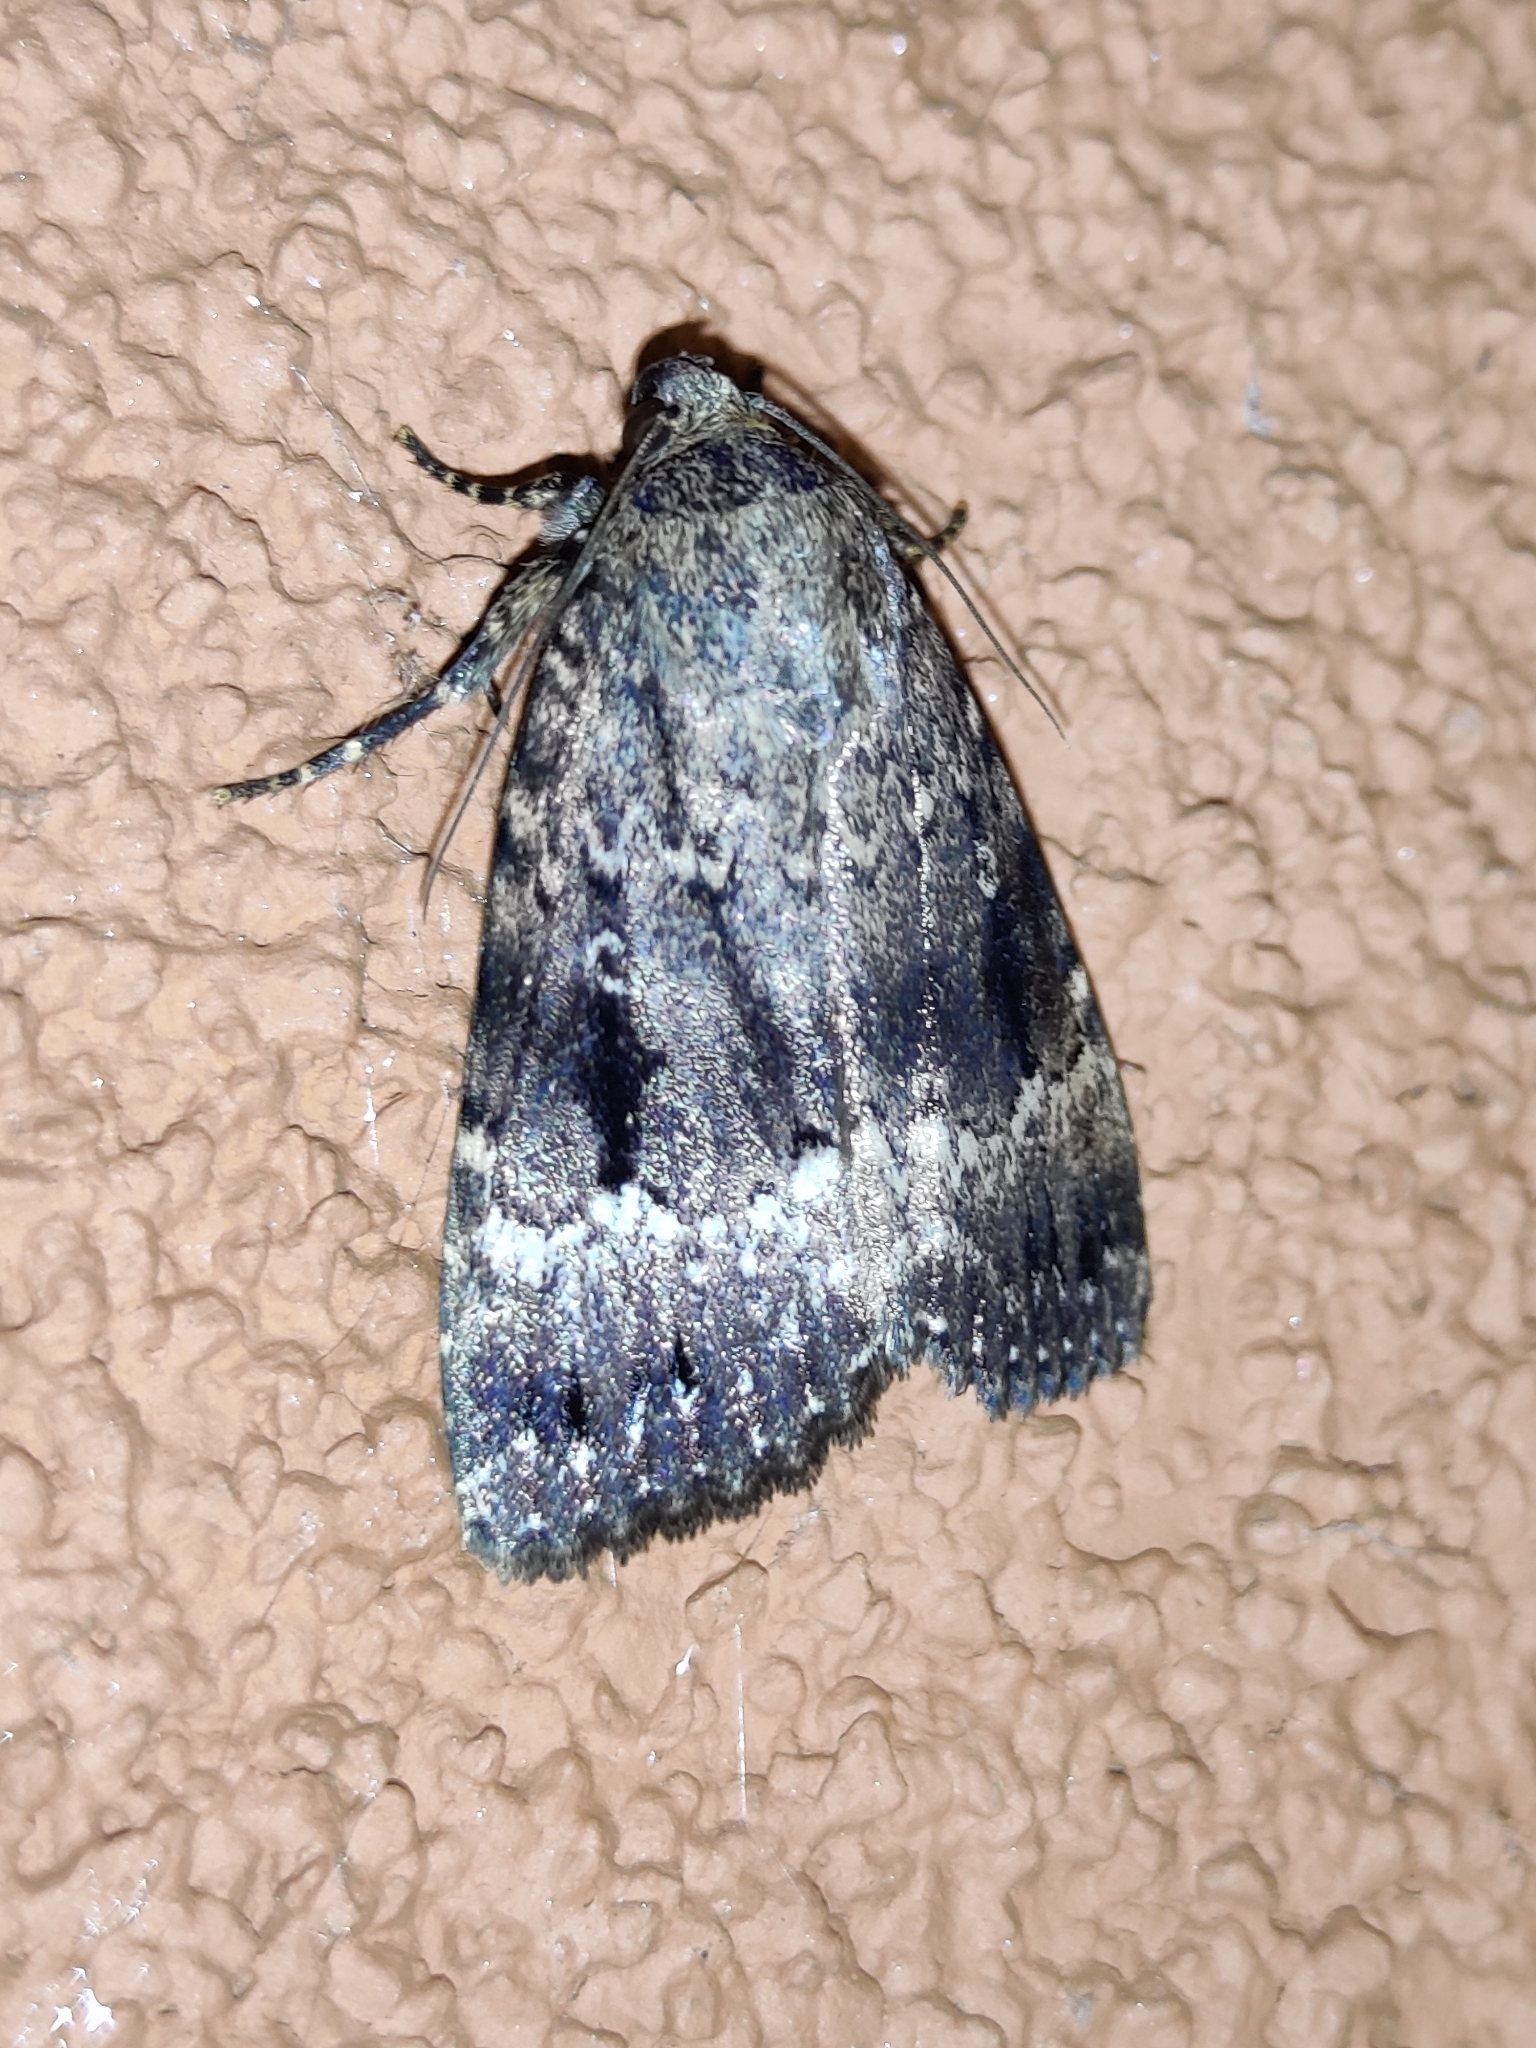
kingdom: Animalia
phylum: Arthropoda
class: Insecta
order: Lepidoptera
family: Noctuidae
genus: Amphipyra
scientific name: Amphipyra pyramidea
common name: Copper underwing
